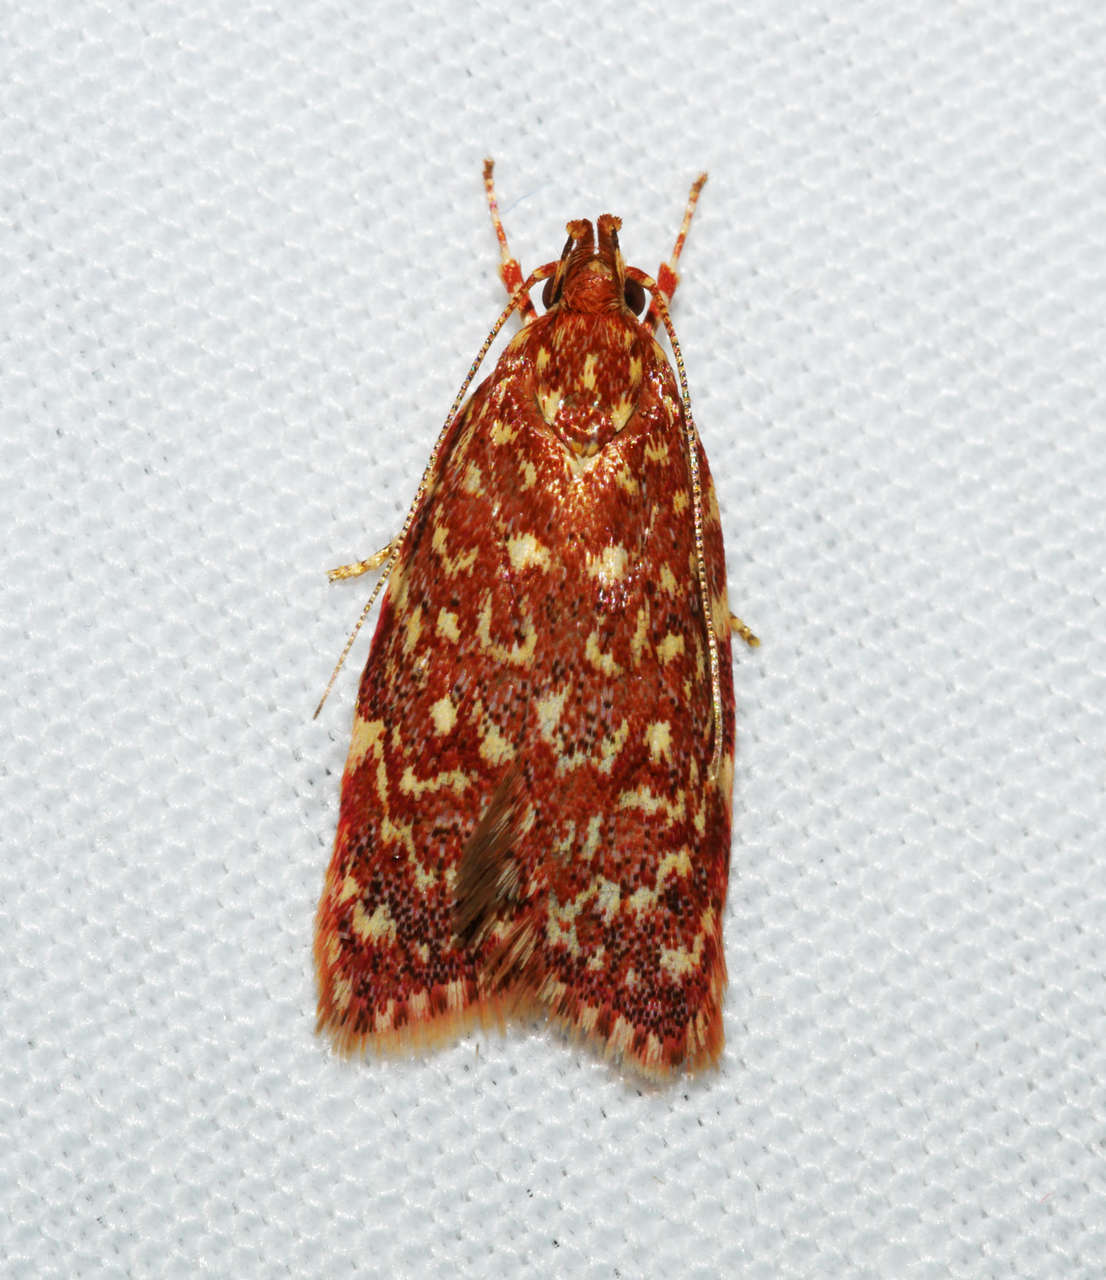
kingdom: Animalia
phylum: Arthropoda
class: Insecta
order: Lepidoptera
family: Oecophoridae
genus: Syringoseca
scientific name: Syringoseca rhodoxantha
